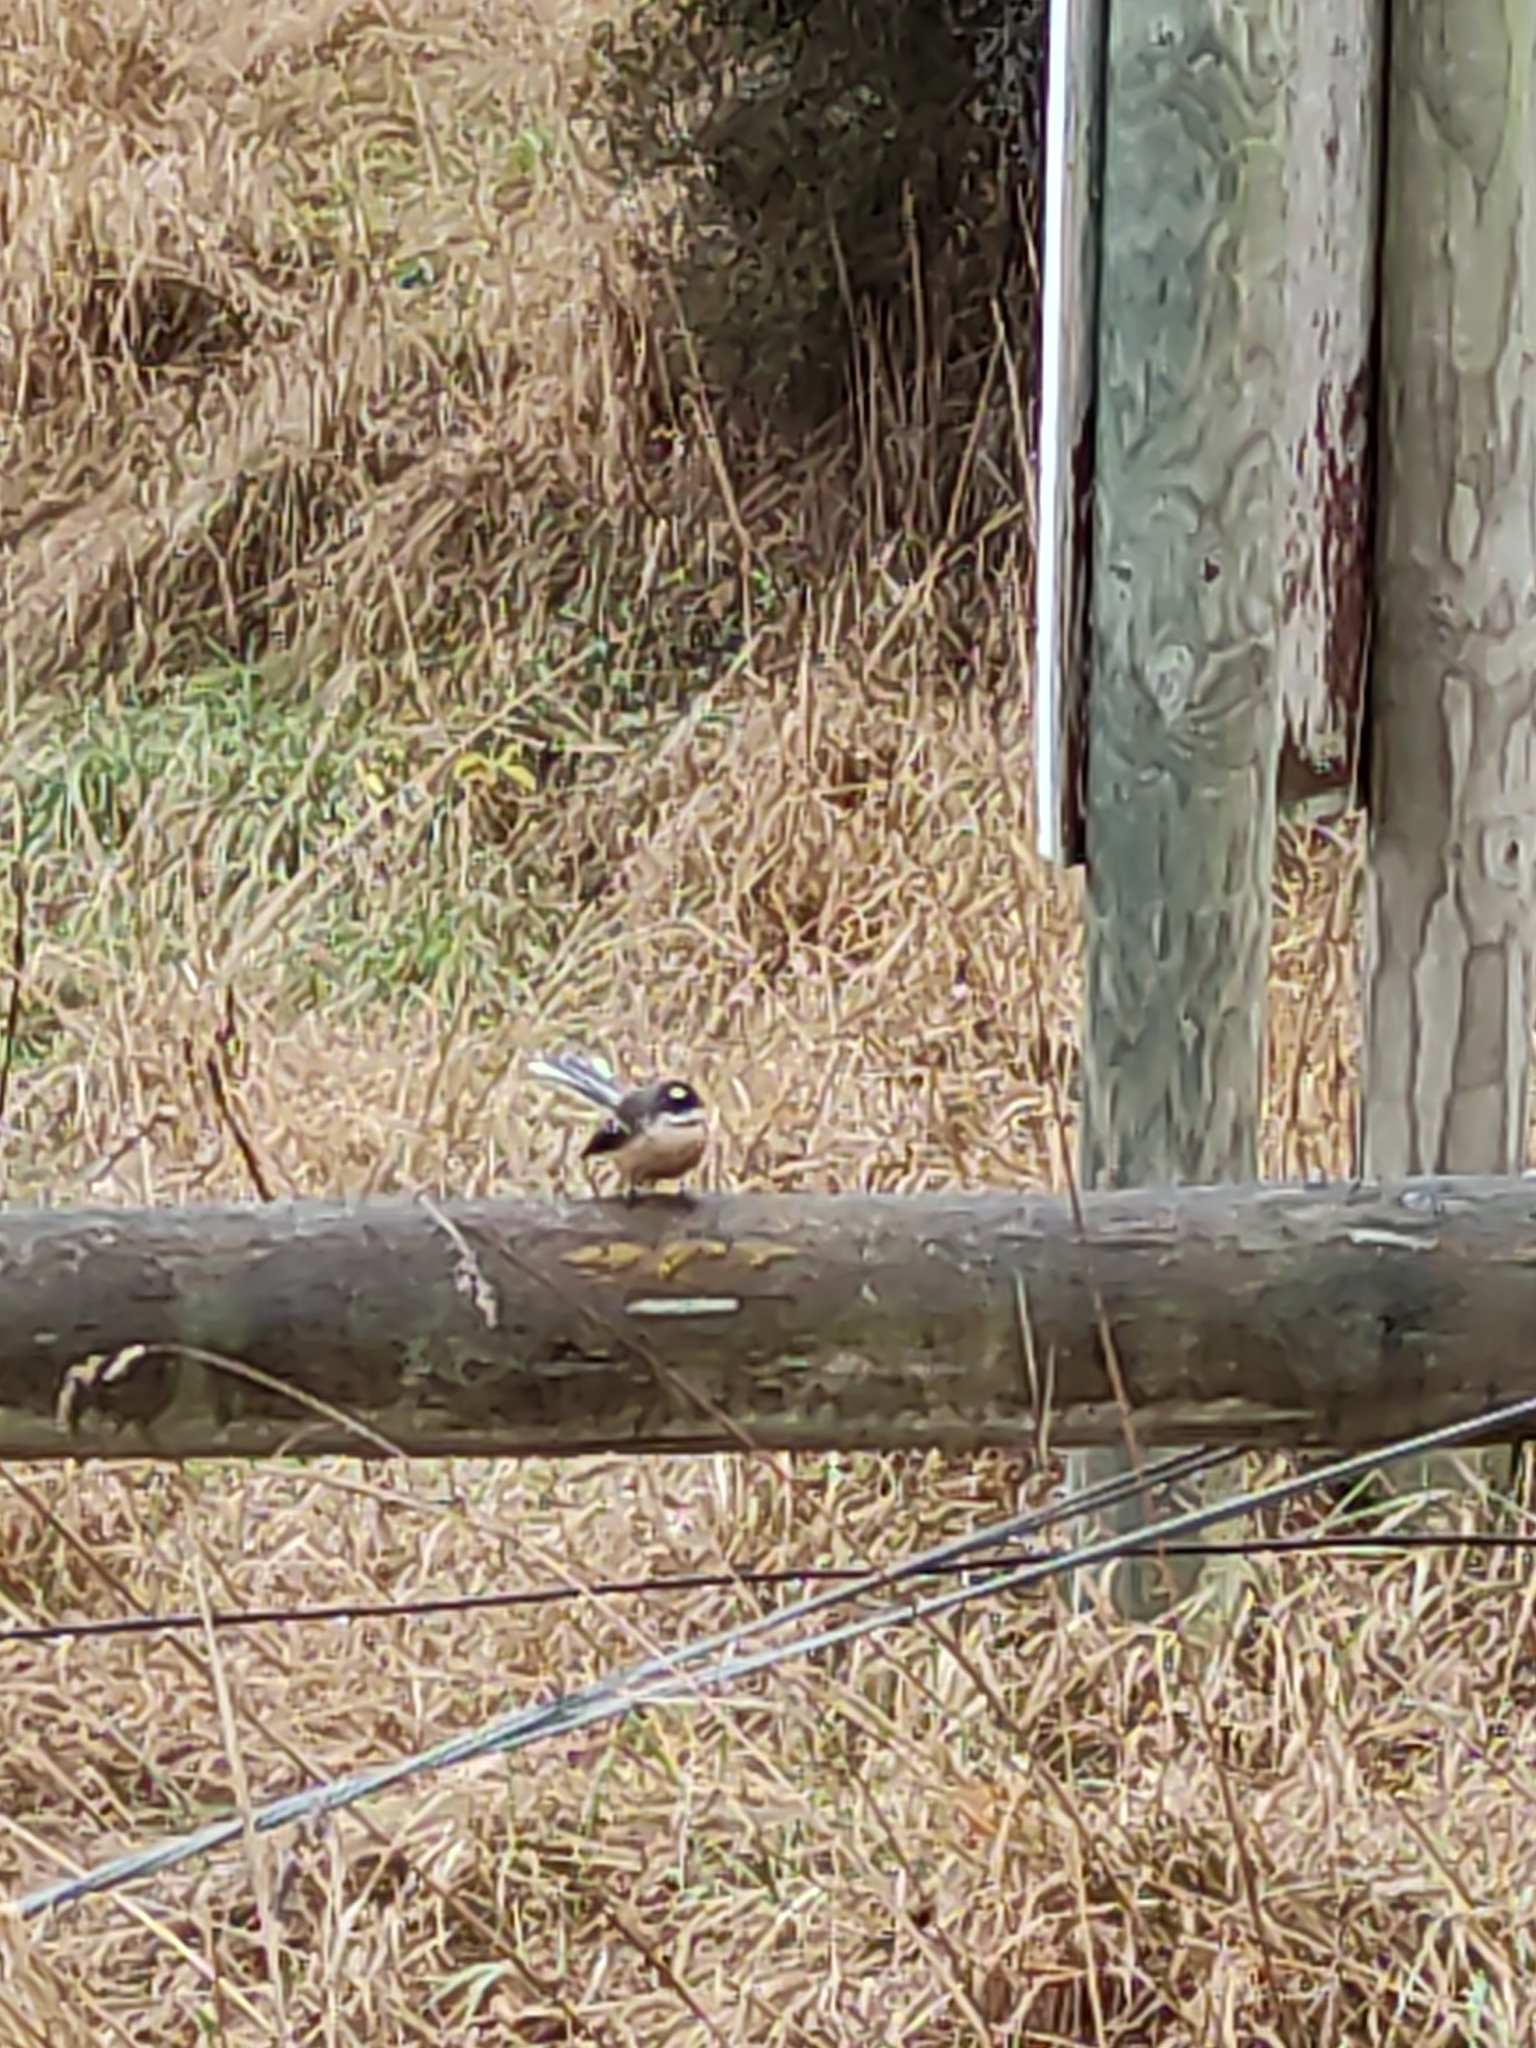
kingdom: Animalia
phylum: Chordata
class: Aves
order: Passeriformes
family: Rhipiduridae
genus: Rhipidura
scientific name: Rhipidura fuliginosa
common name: New zealand fantail
